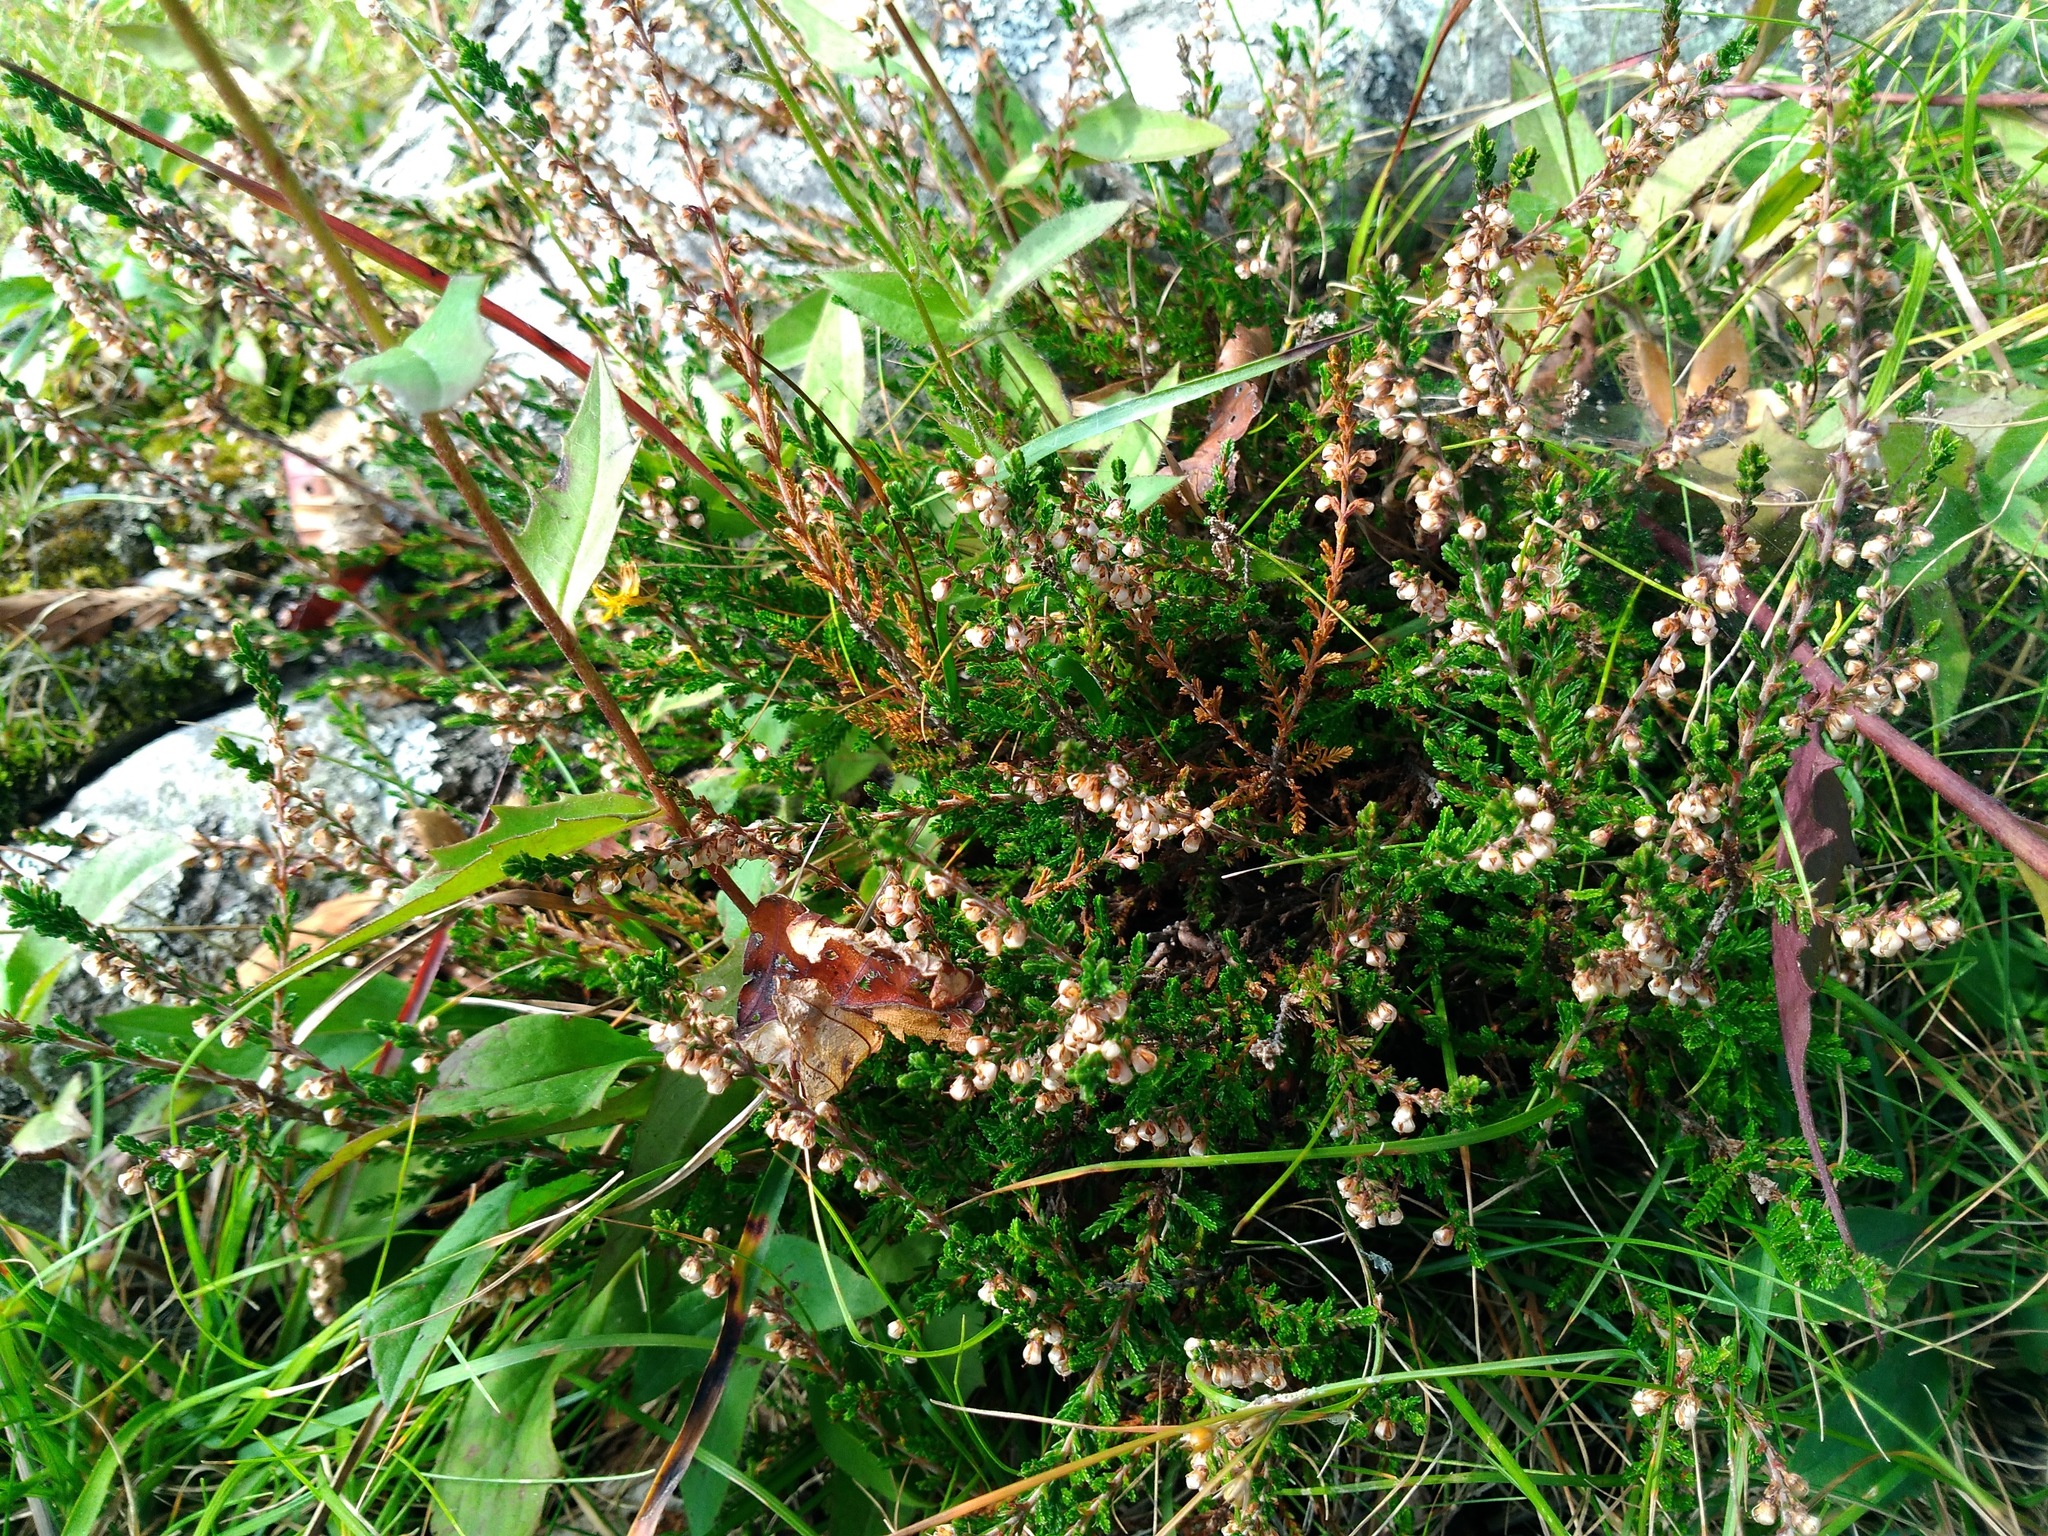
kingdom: Plantae
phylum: Tracheophyta
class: Magnoliopsida
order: Ericales
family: Ericaceae
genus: Calluna
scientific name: Calluna vulgaris
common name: Heather
